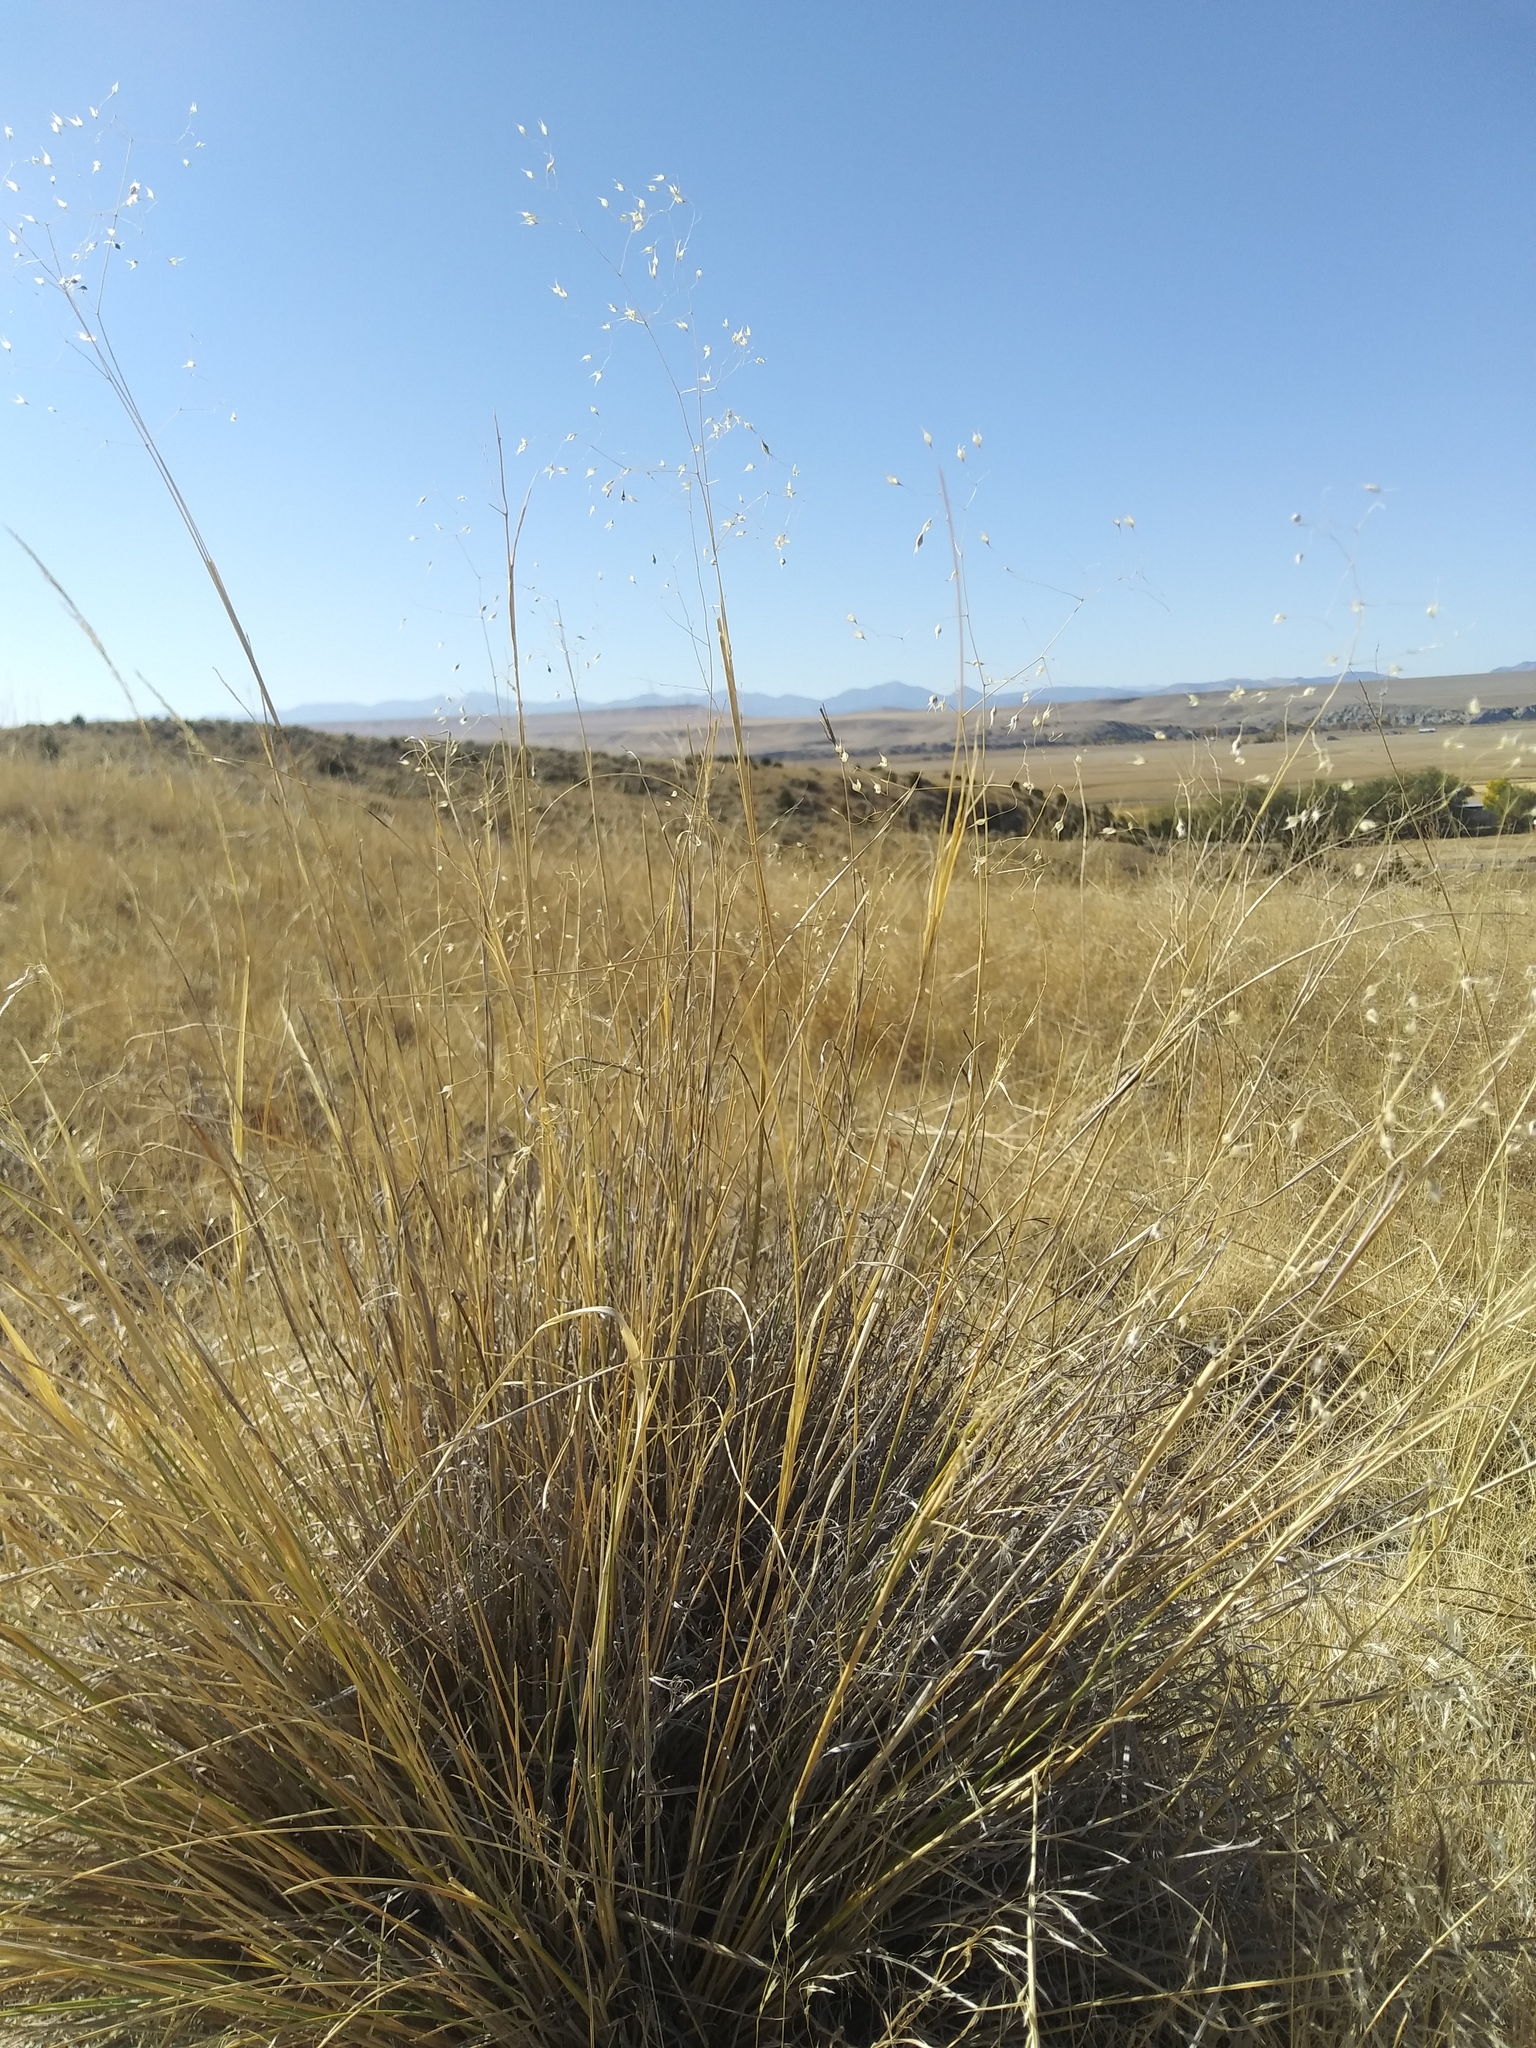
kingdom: Plantae
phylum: Tracheophyta
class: Liliopsida
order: Poales
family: Poaceae
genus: Eriocoma
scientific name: Eriocoma hymenoides
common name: Indian mountain ricegrass
